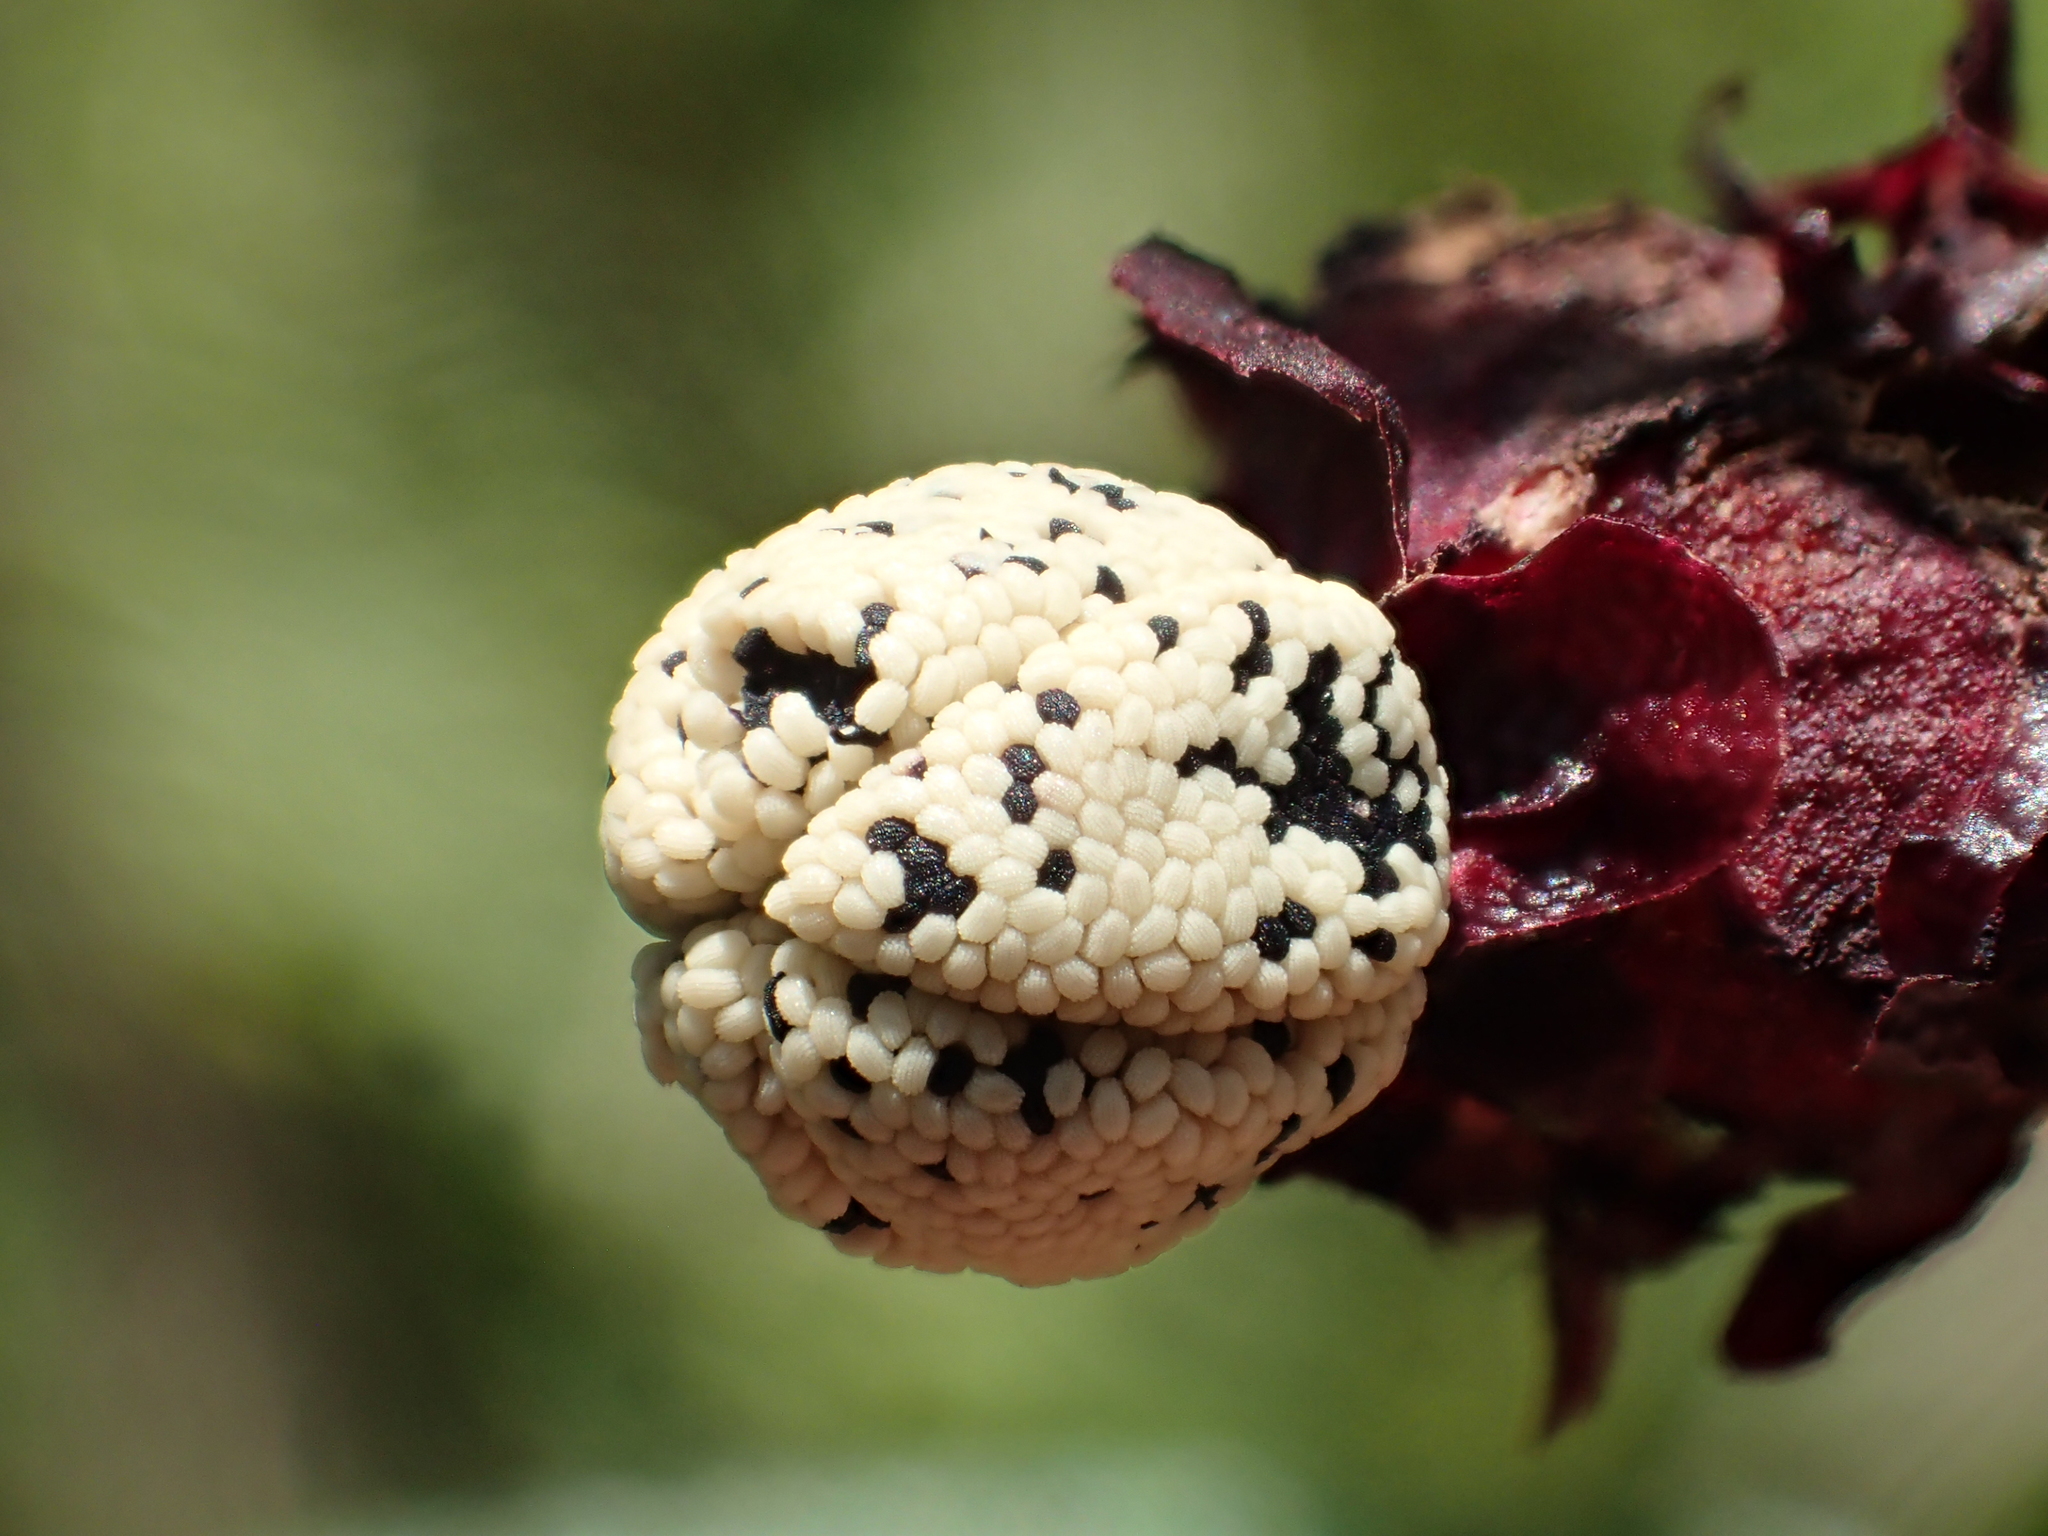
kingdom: Plantae
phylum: Tracheophyta
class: Magnoliopsida
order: Myrtales
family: Melastomataceae
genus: Melastoma
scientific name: Melastoma scaberrima
